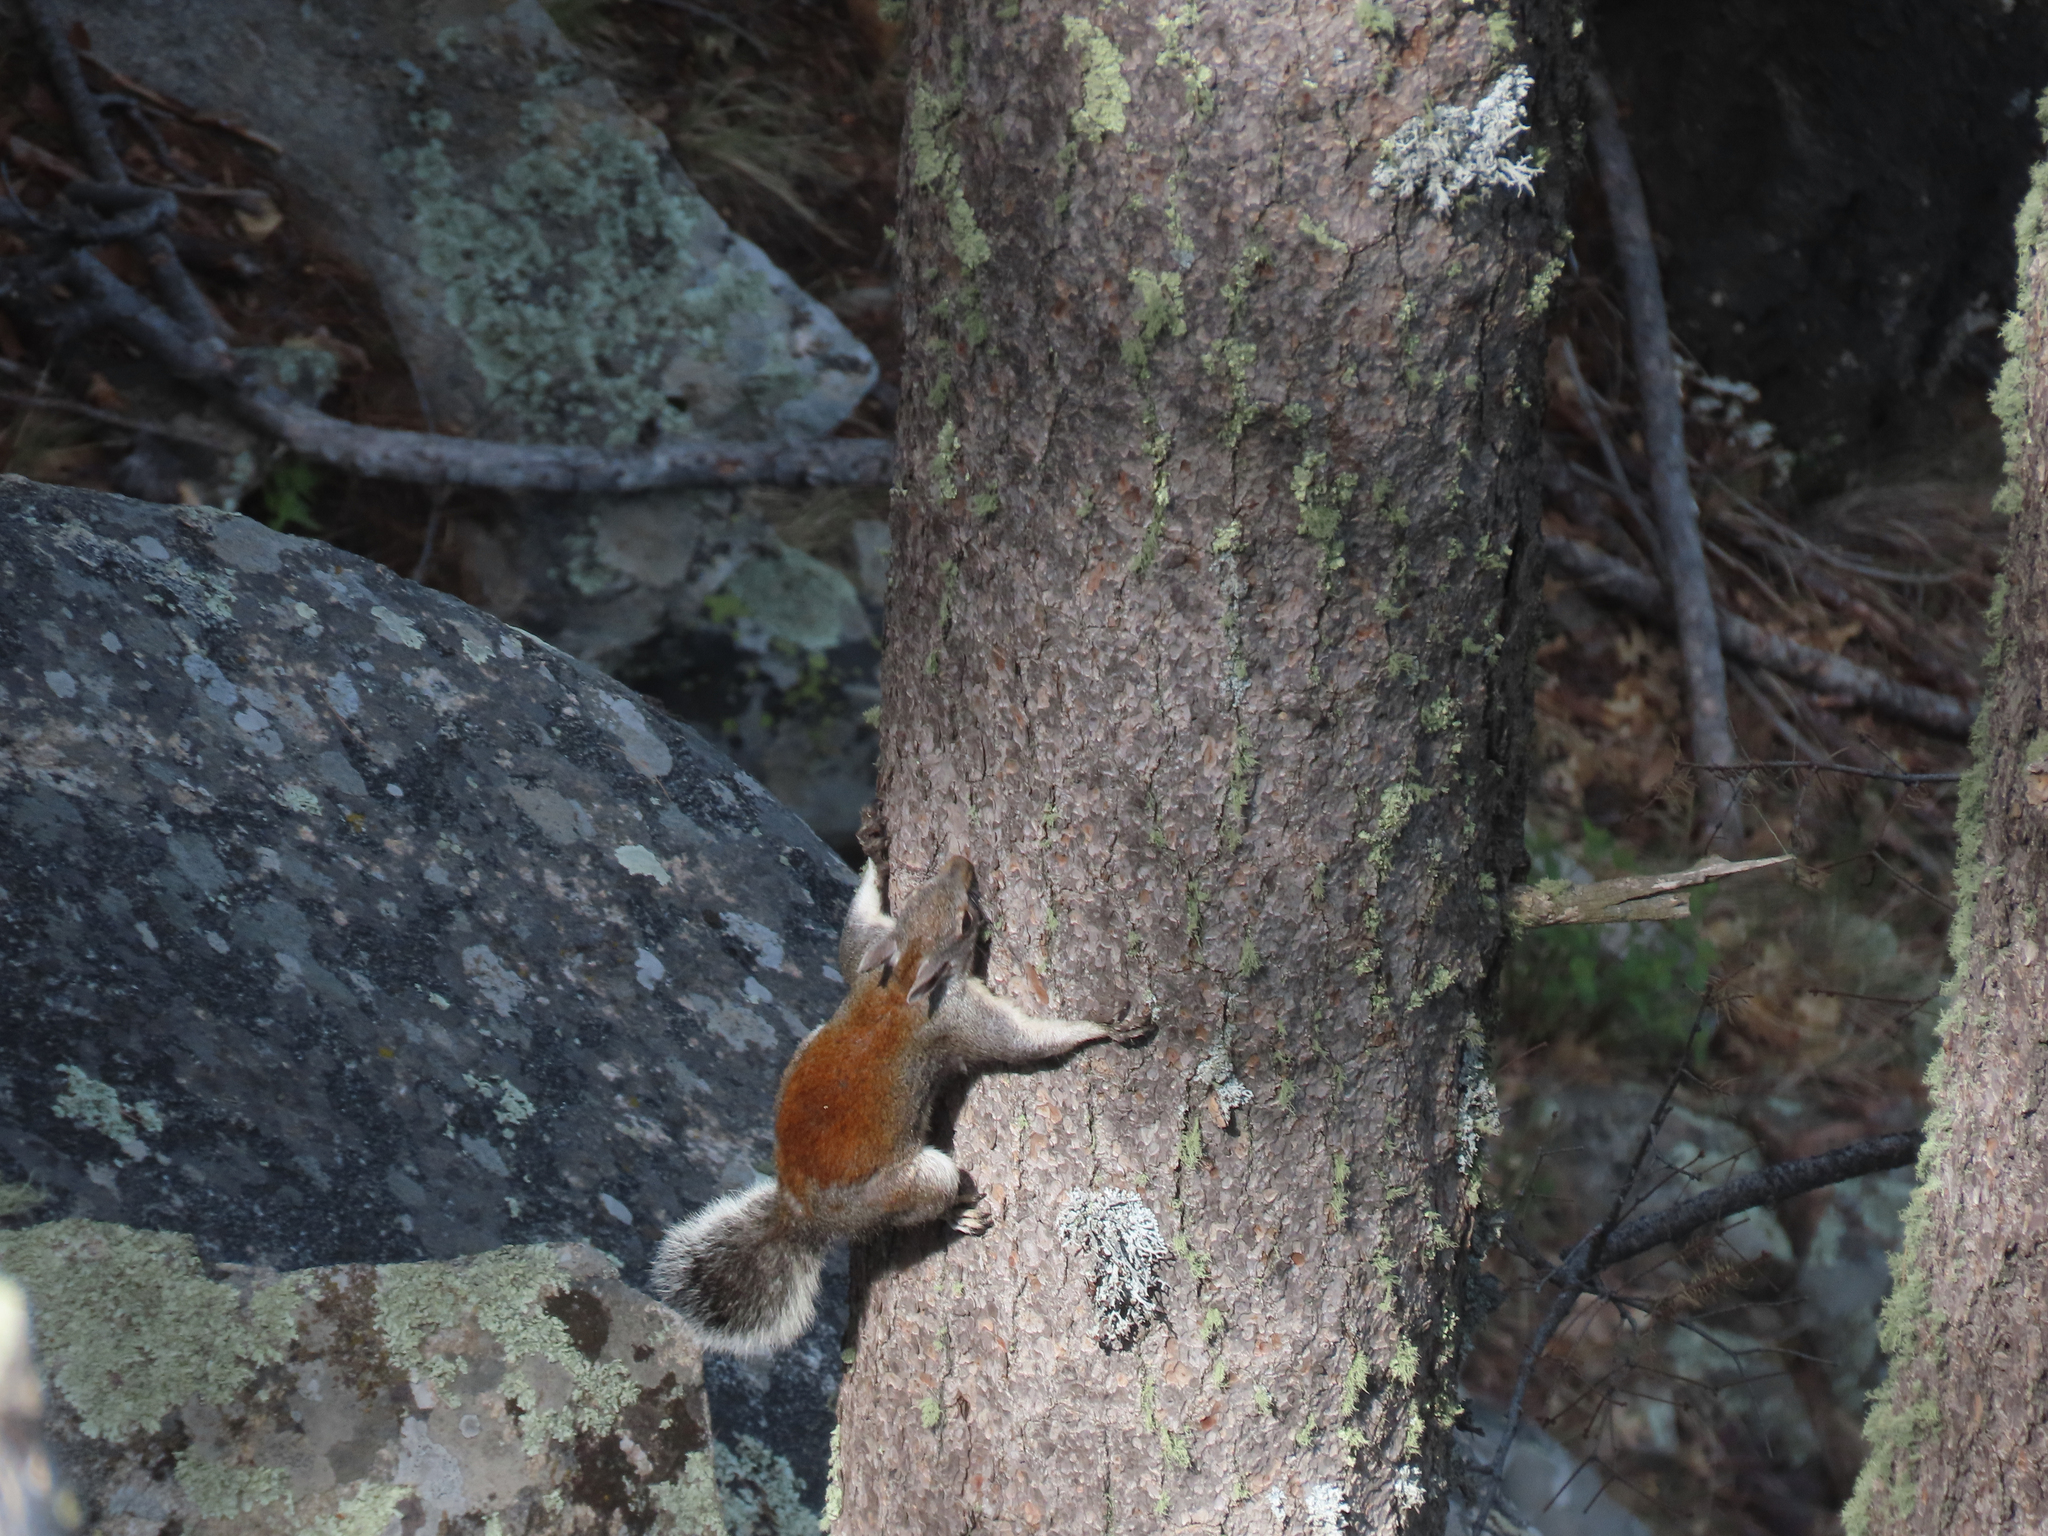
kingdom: Animalia
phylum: Chordata
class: Mammalia
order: Rodentia
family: Sciuridae
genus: Sciurus
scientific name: Sciurus aberti
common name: Abert's squirrel
